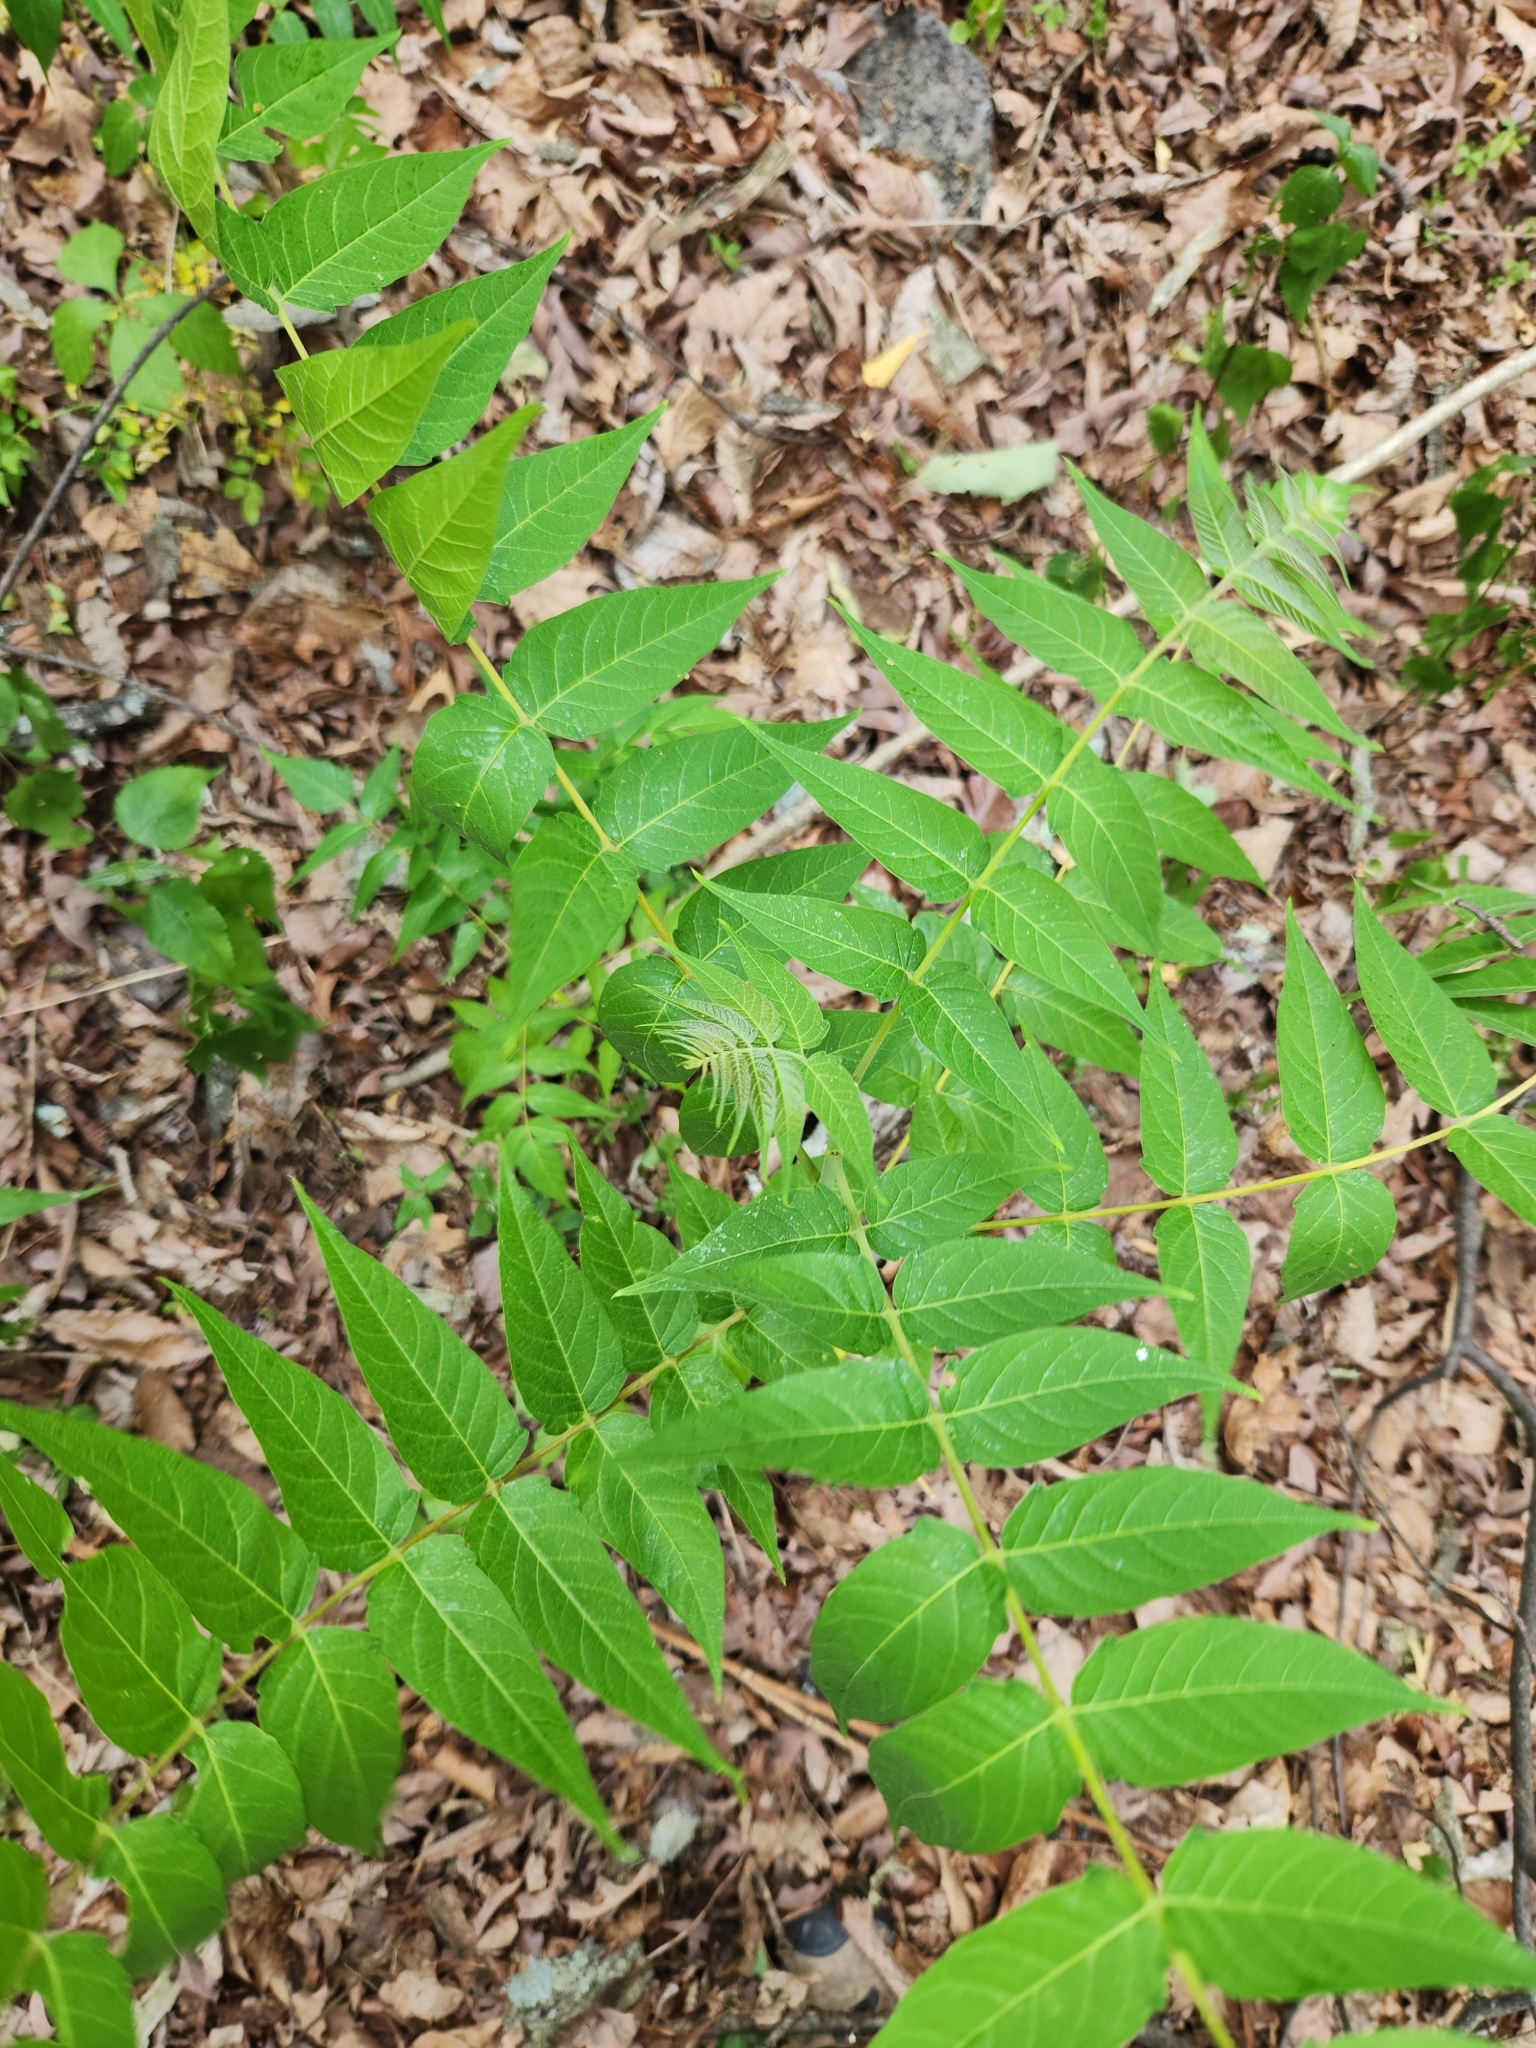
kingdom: Plantae
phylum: Tracheophyta
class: Magnoliopsida
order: Sapindales
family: Simaroubaceae
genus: Ailanthus
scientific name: Ailanthus altissima
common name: Tree-of-heaven
